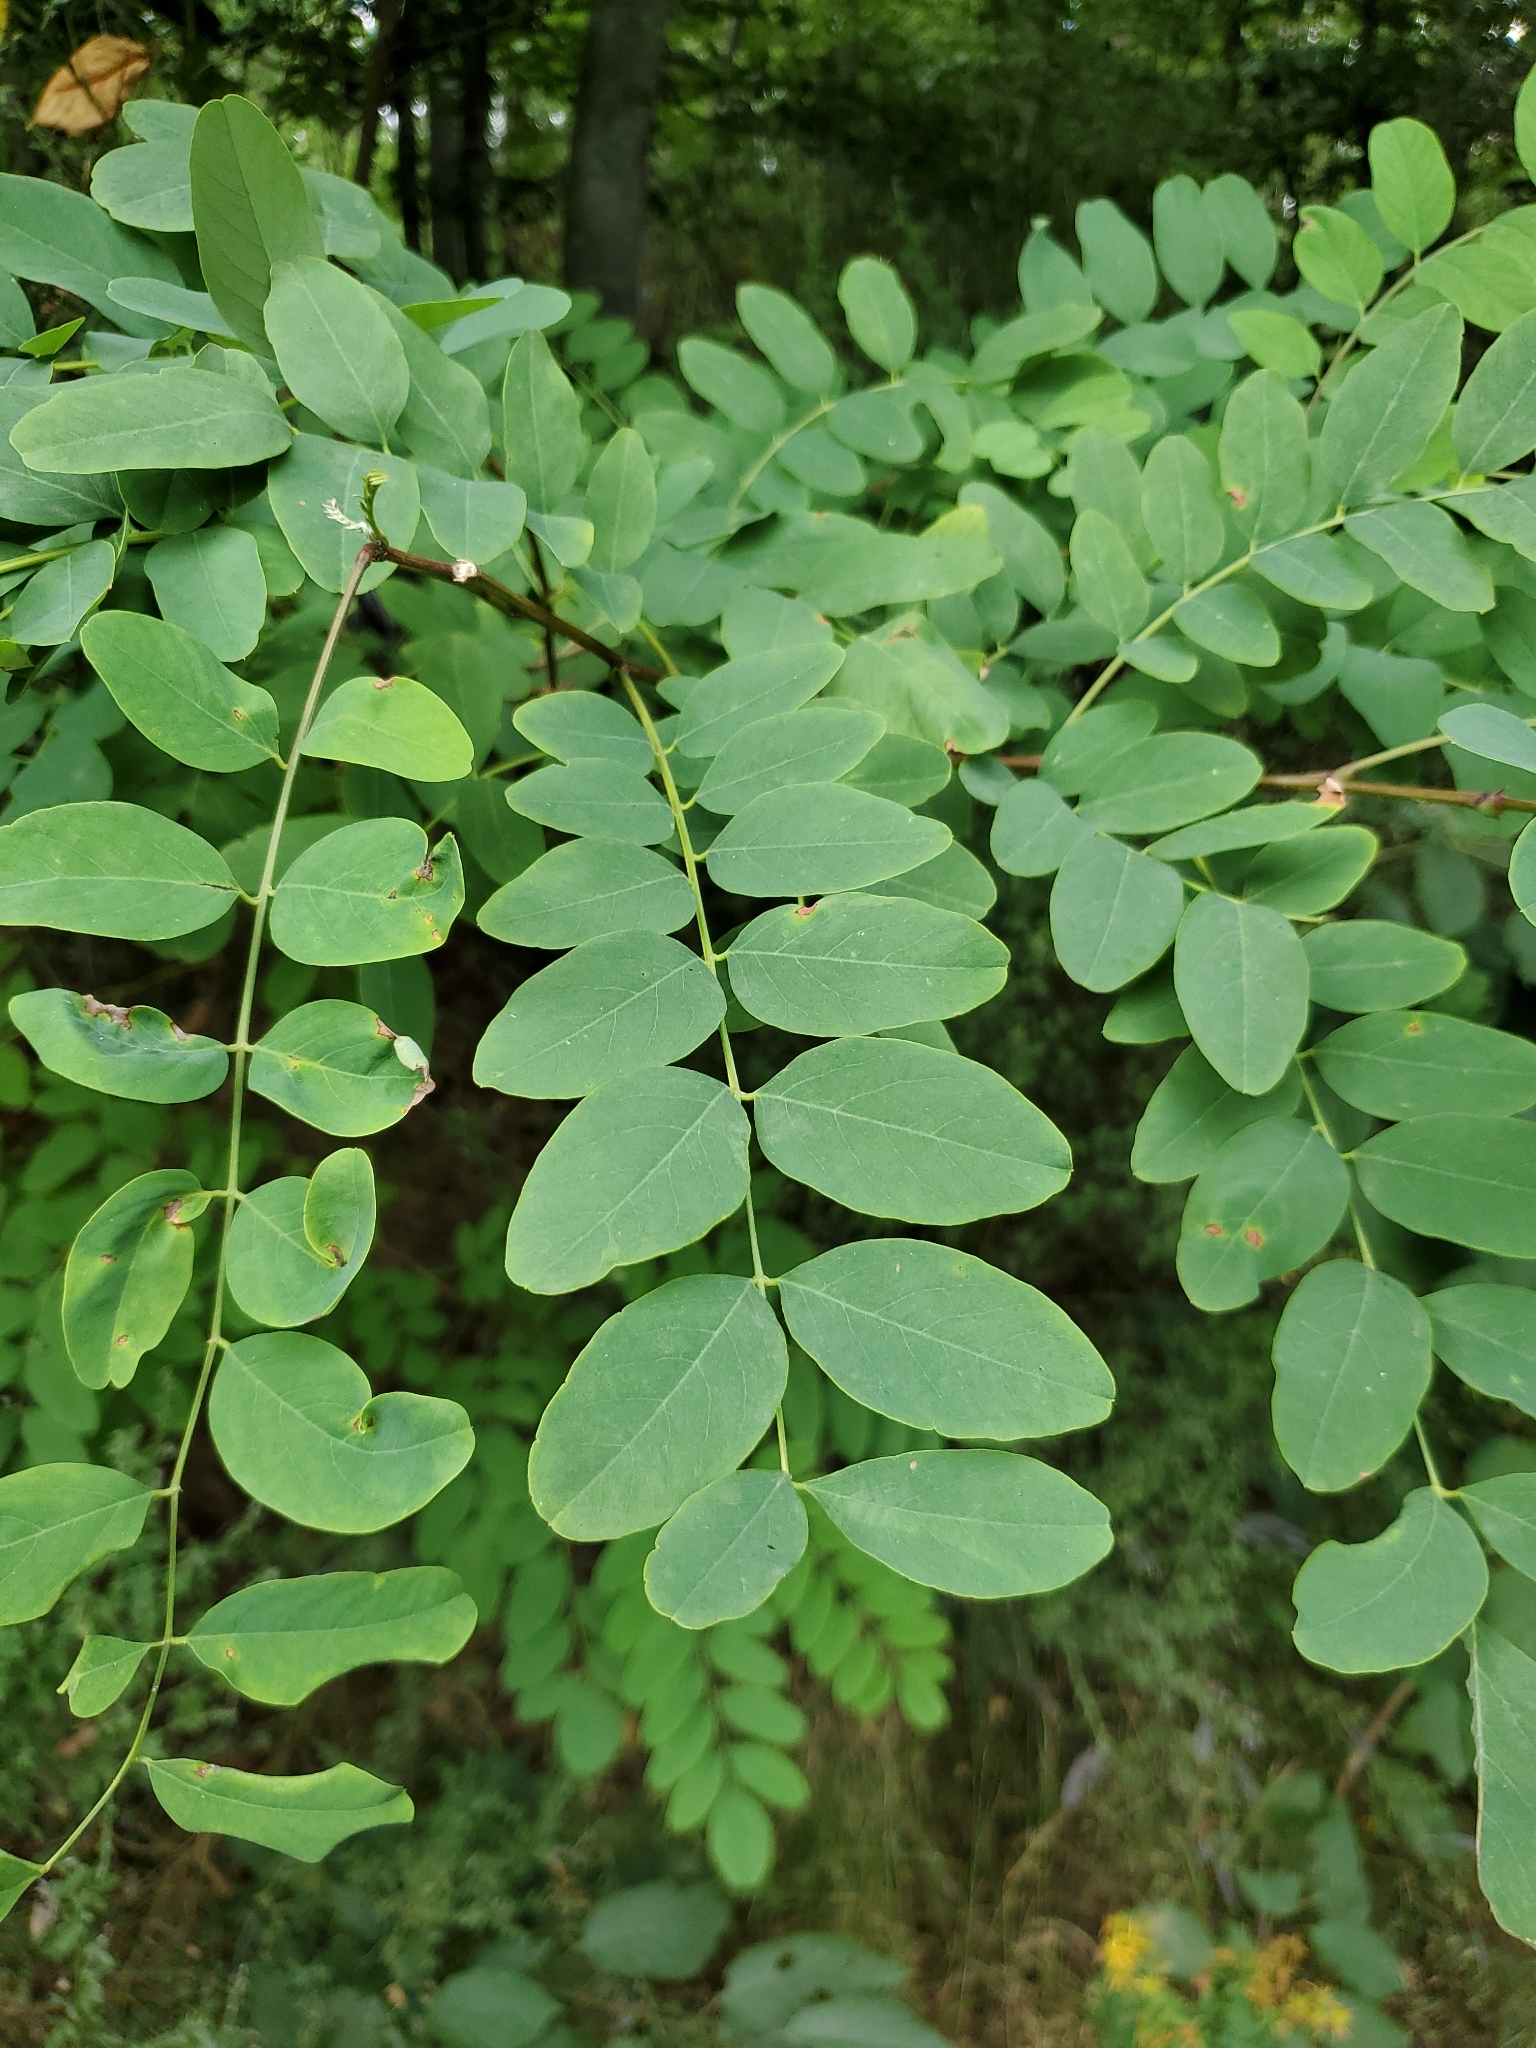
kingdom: Plantae
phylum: Tracheophyta
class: Magnoliopsida
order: Fabales
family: Fabaceae
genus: Robinia
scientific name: Robinia pseudoacacia
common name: Black locust
